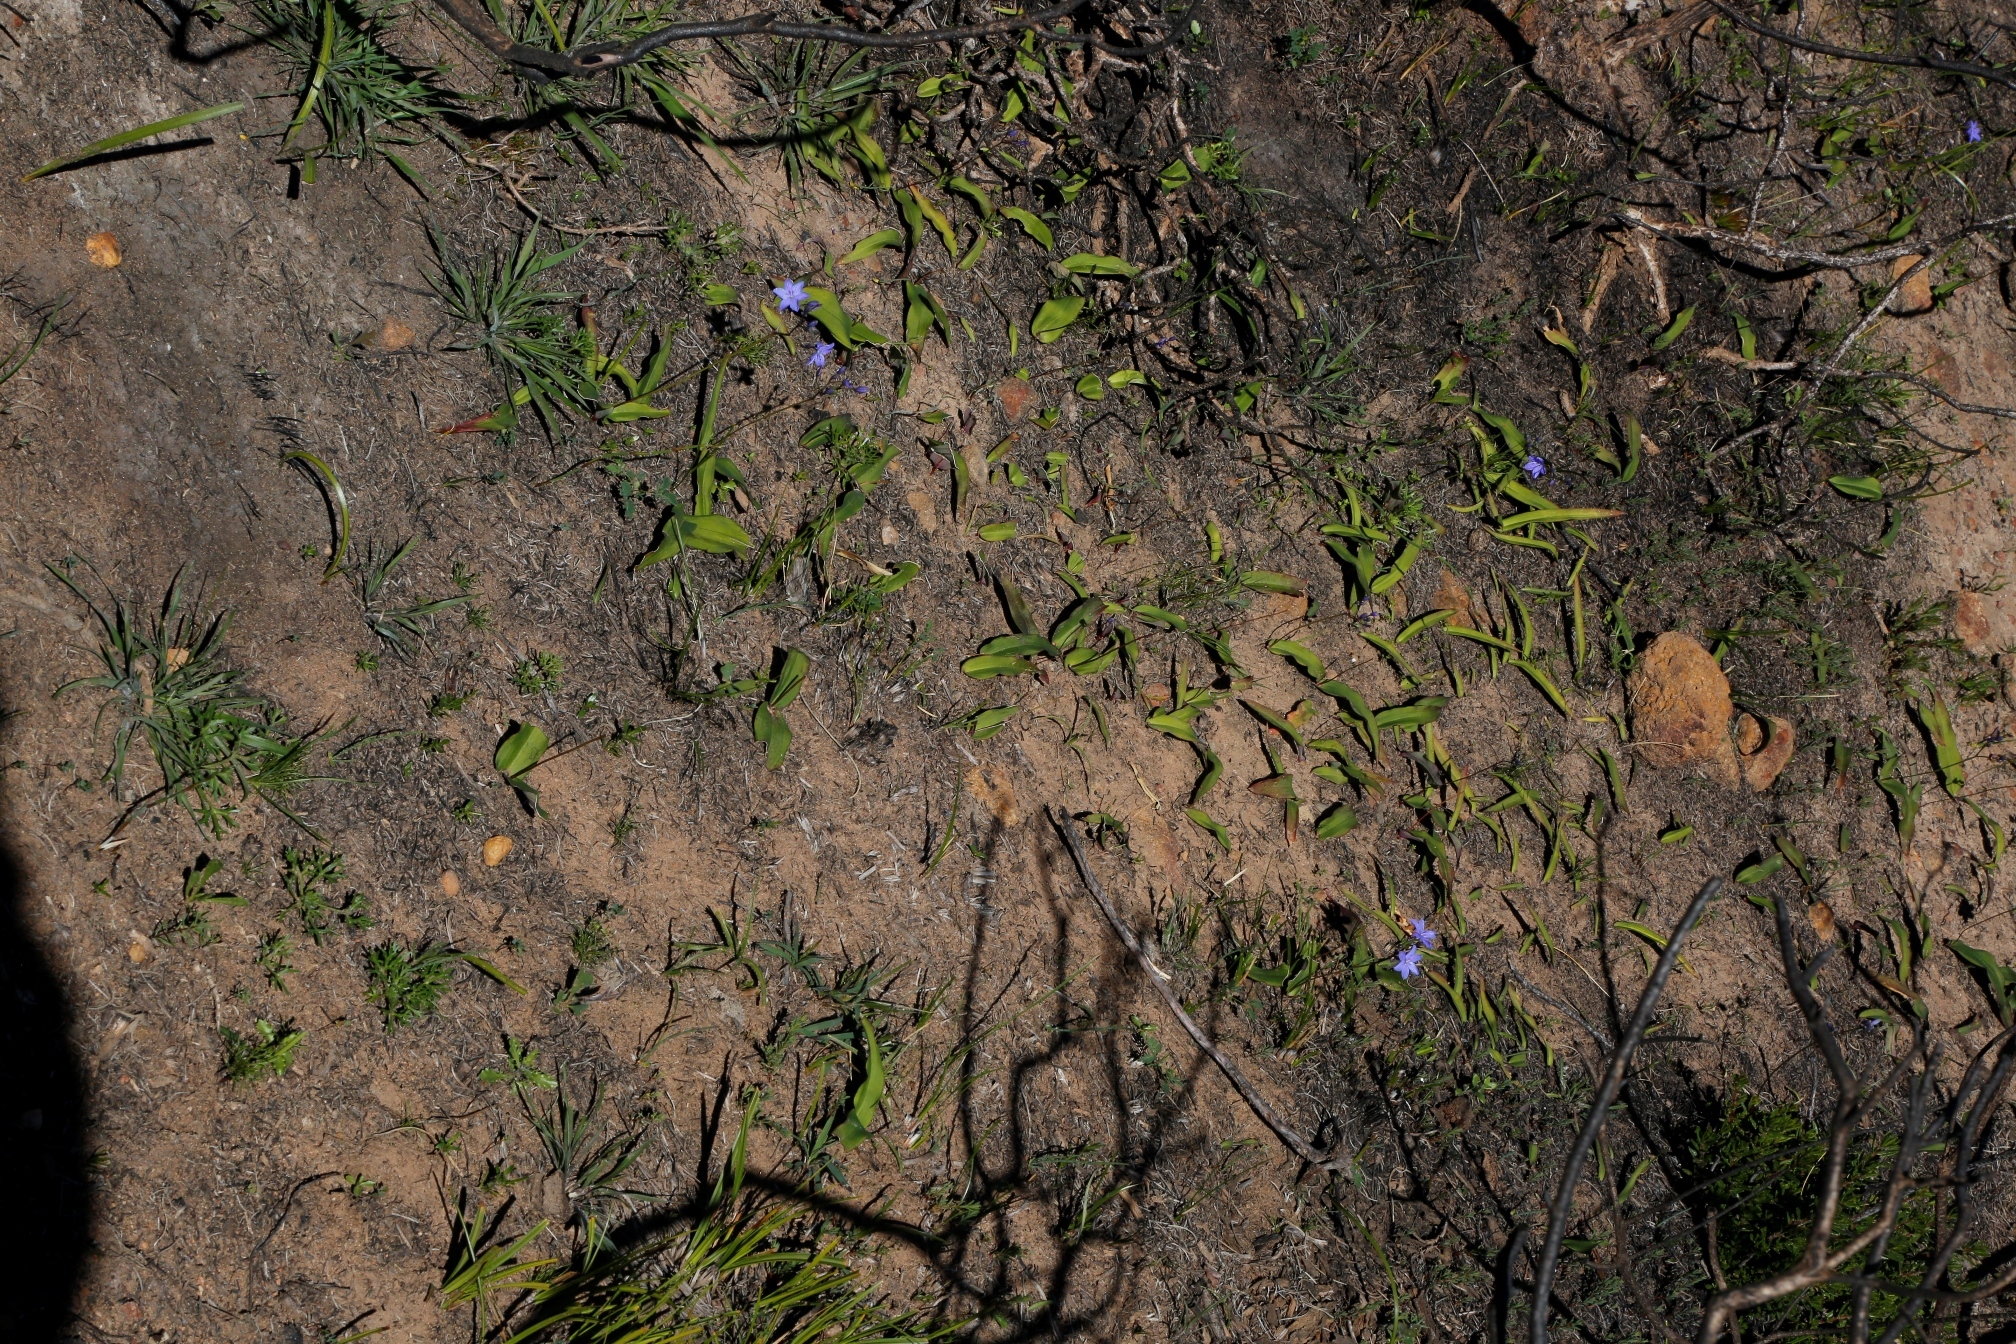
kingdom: Plantae
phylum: Tracheophyta
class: Liliopsida
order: Asparagales
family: Asphodelaceae
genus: Chamaescilla
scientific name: Chamaescilla corymbosa
